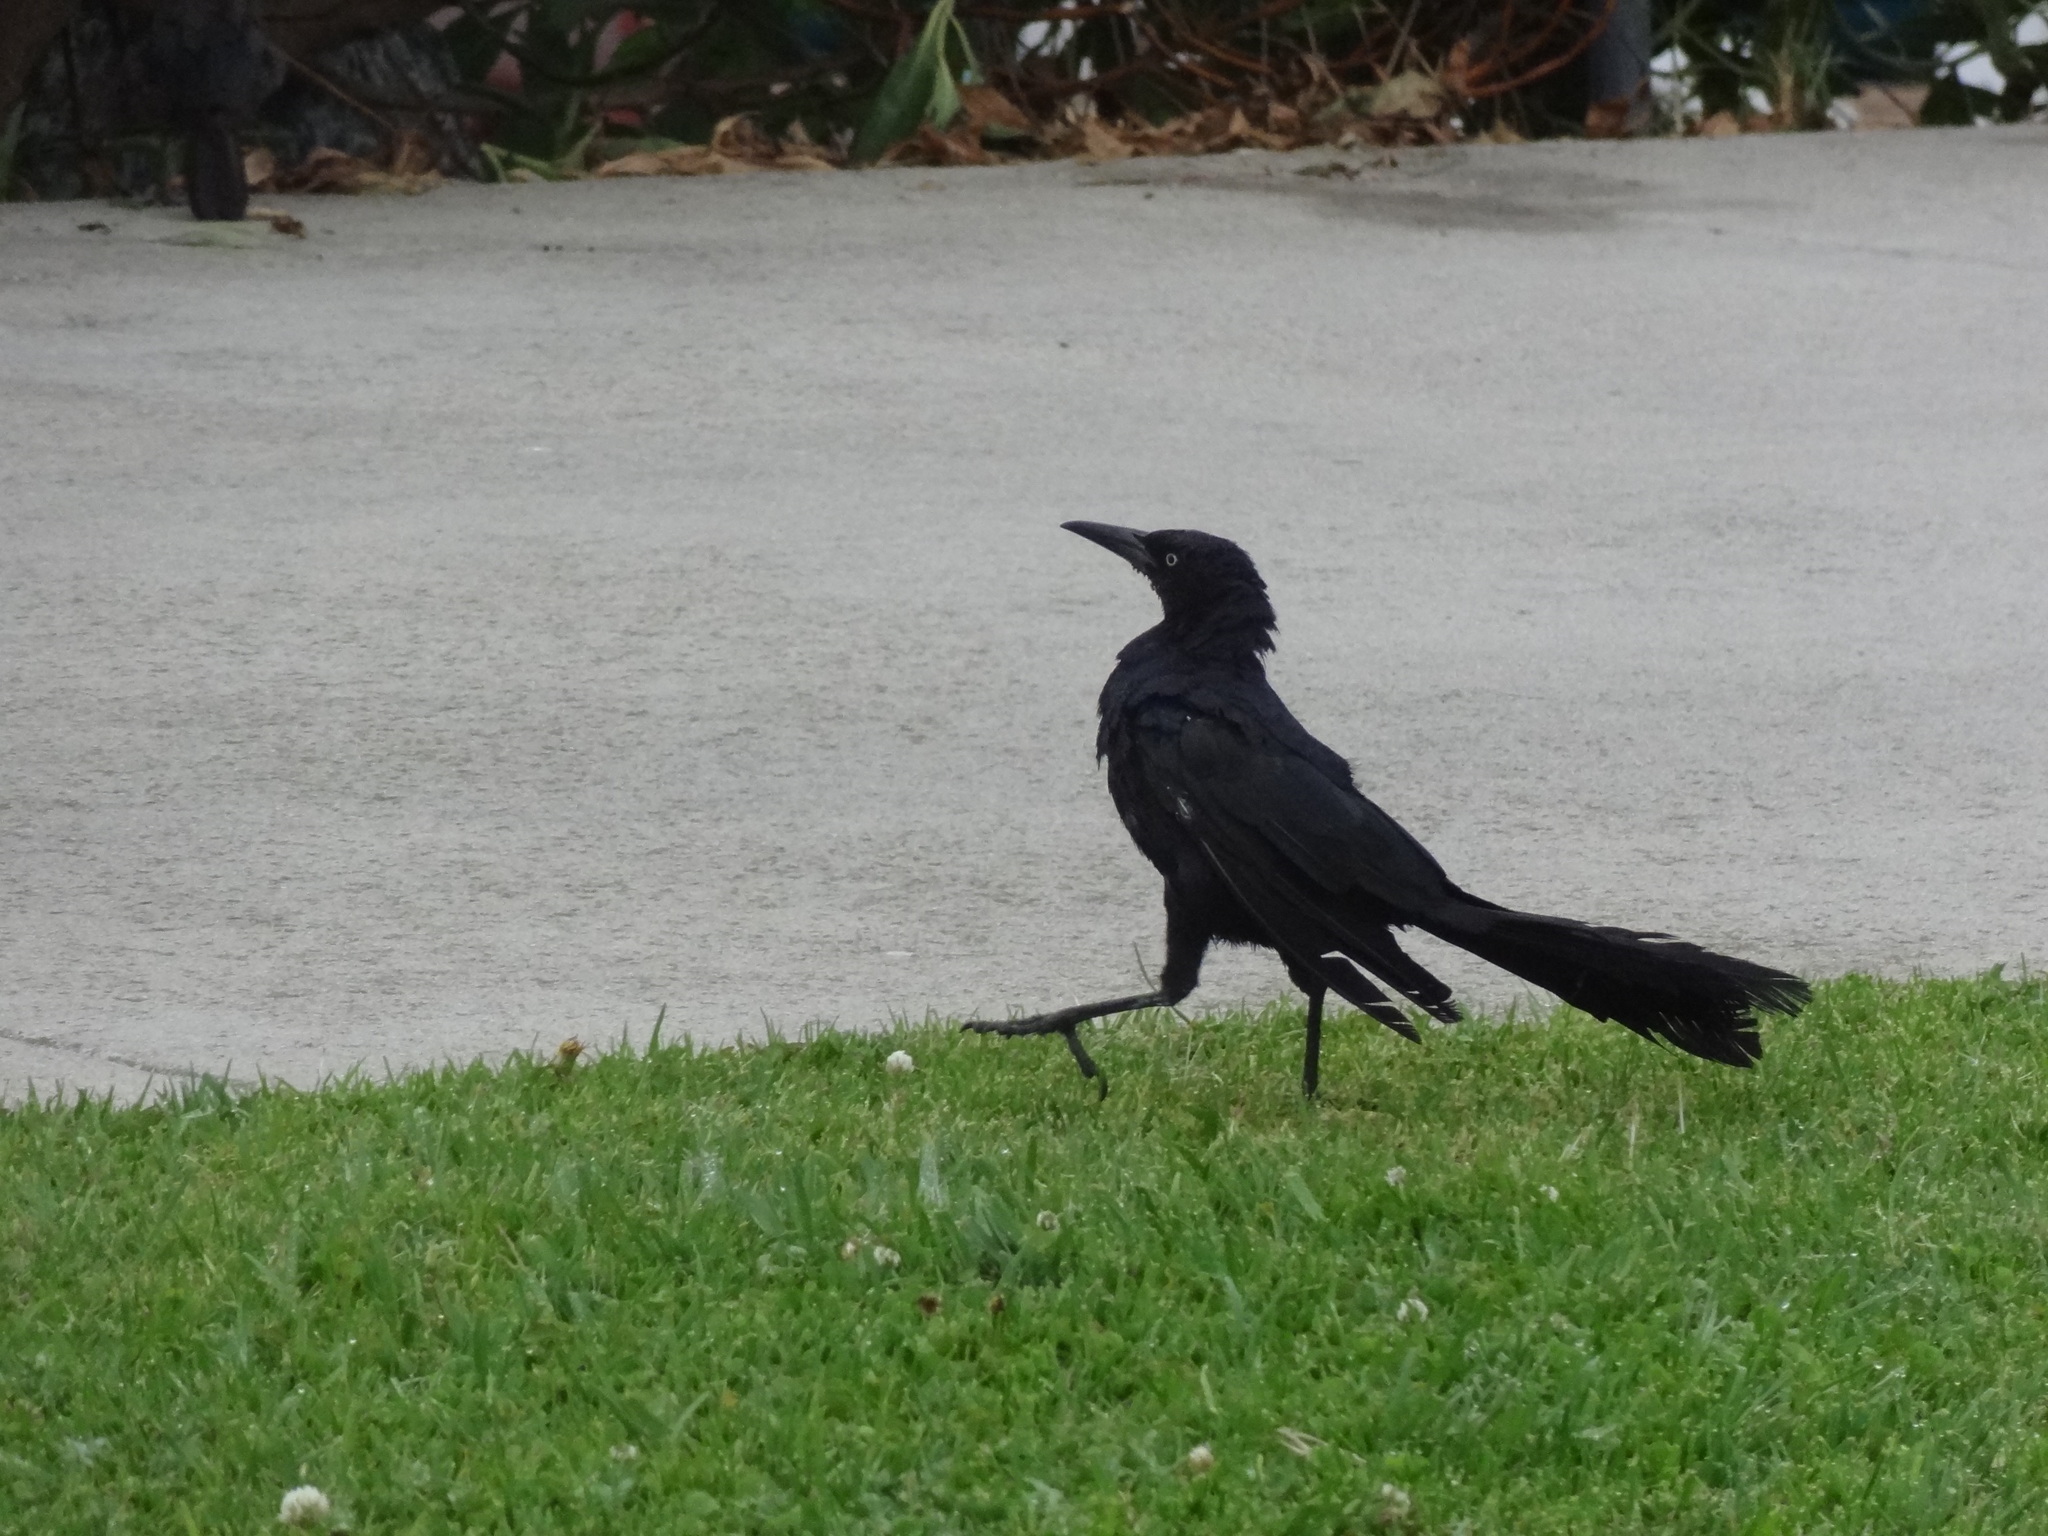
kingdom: Animalia
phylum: Chordata
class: Aves
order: Passeriformes
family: Icteridae
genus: Quiscalus
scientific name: Quiscalus mexicanus
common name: Great-tailed grackle
